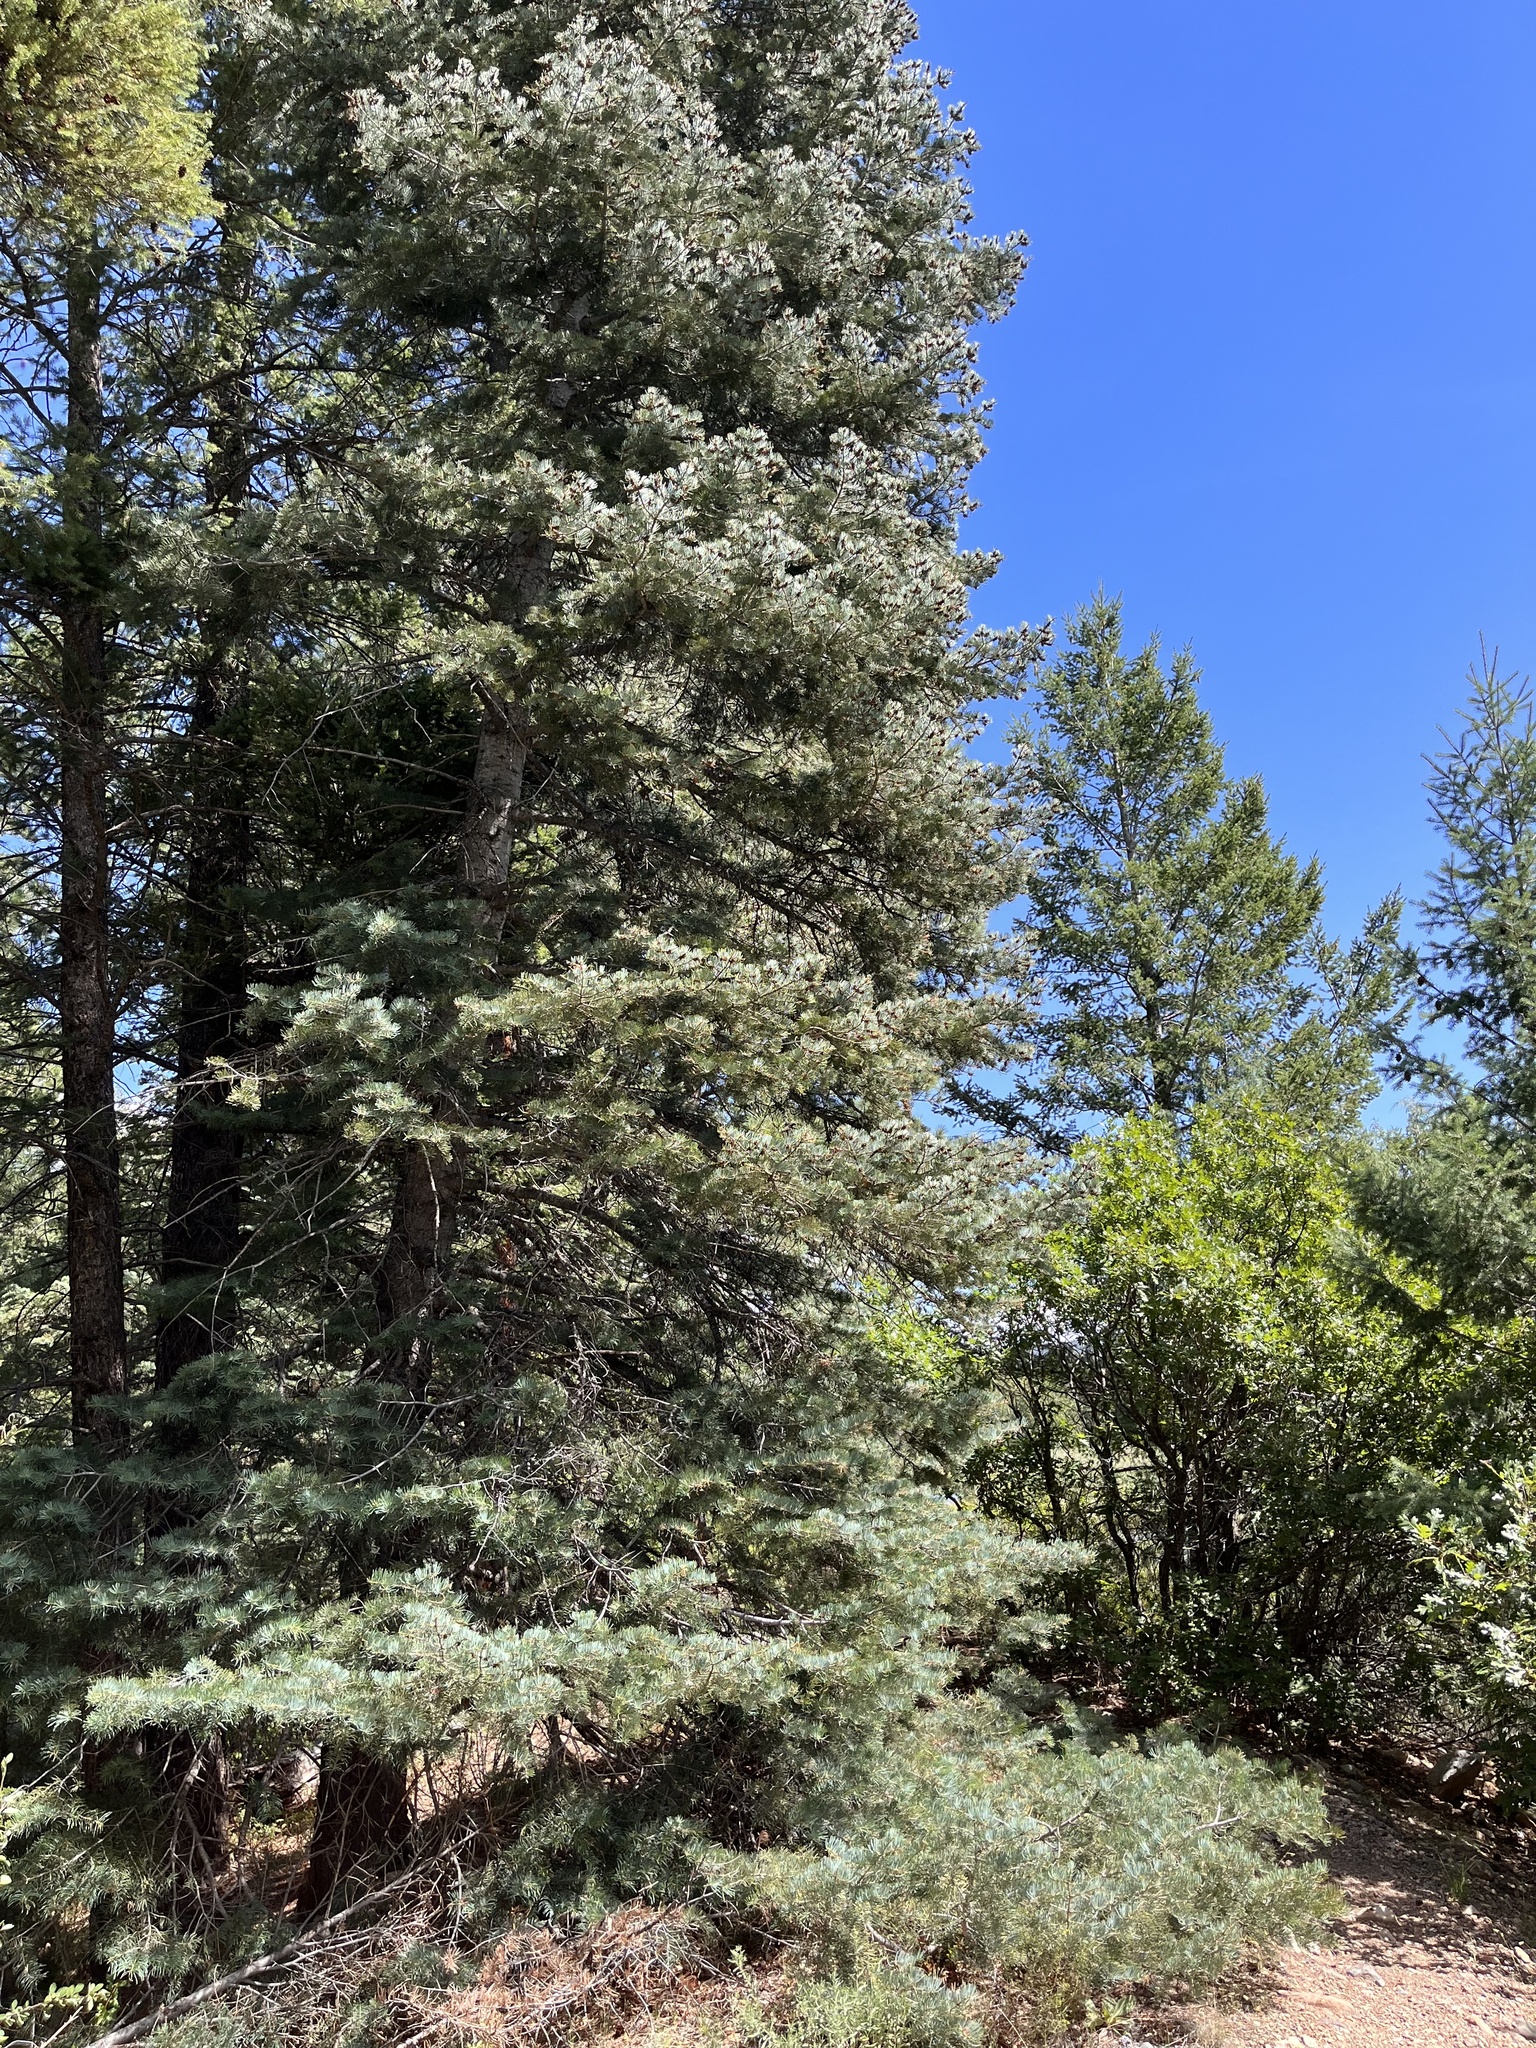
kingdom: Plantae
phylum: Tracheophyta
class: Pinopsida
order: Pinales
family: Pinaceae
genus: Abies
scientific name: Abies concolor
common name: Colorado fir
